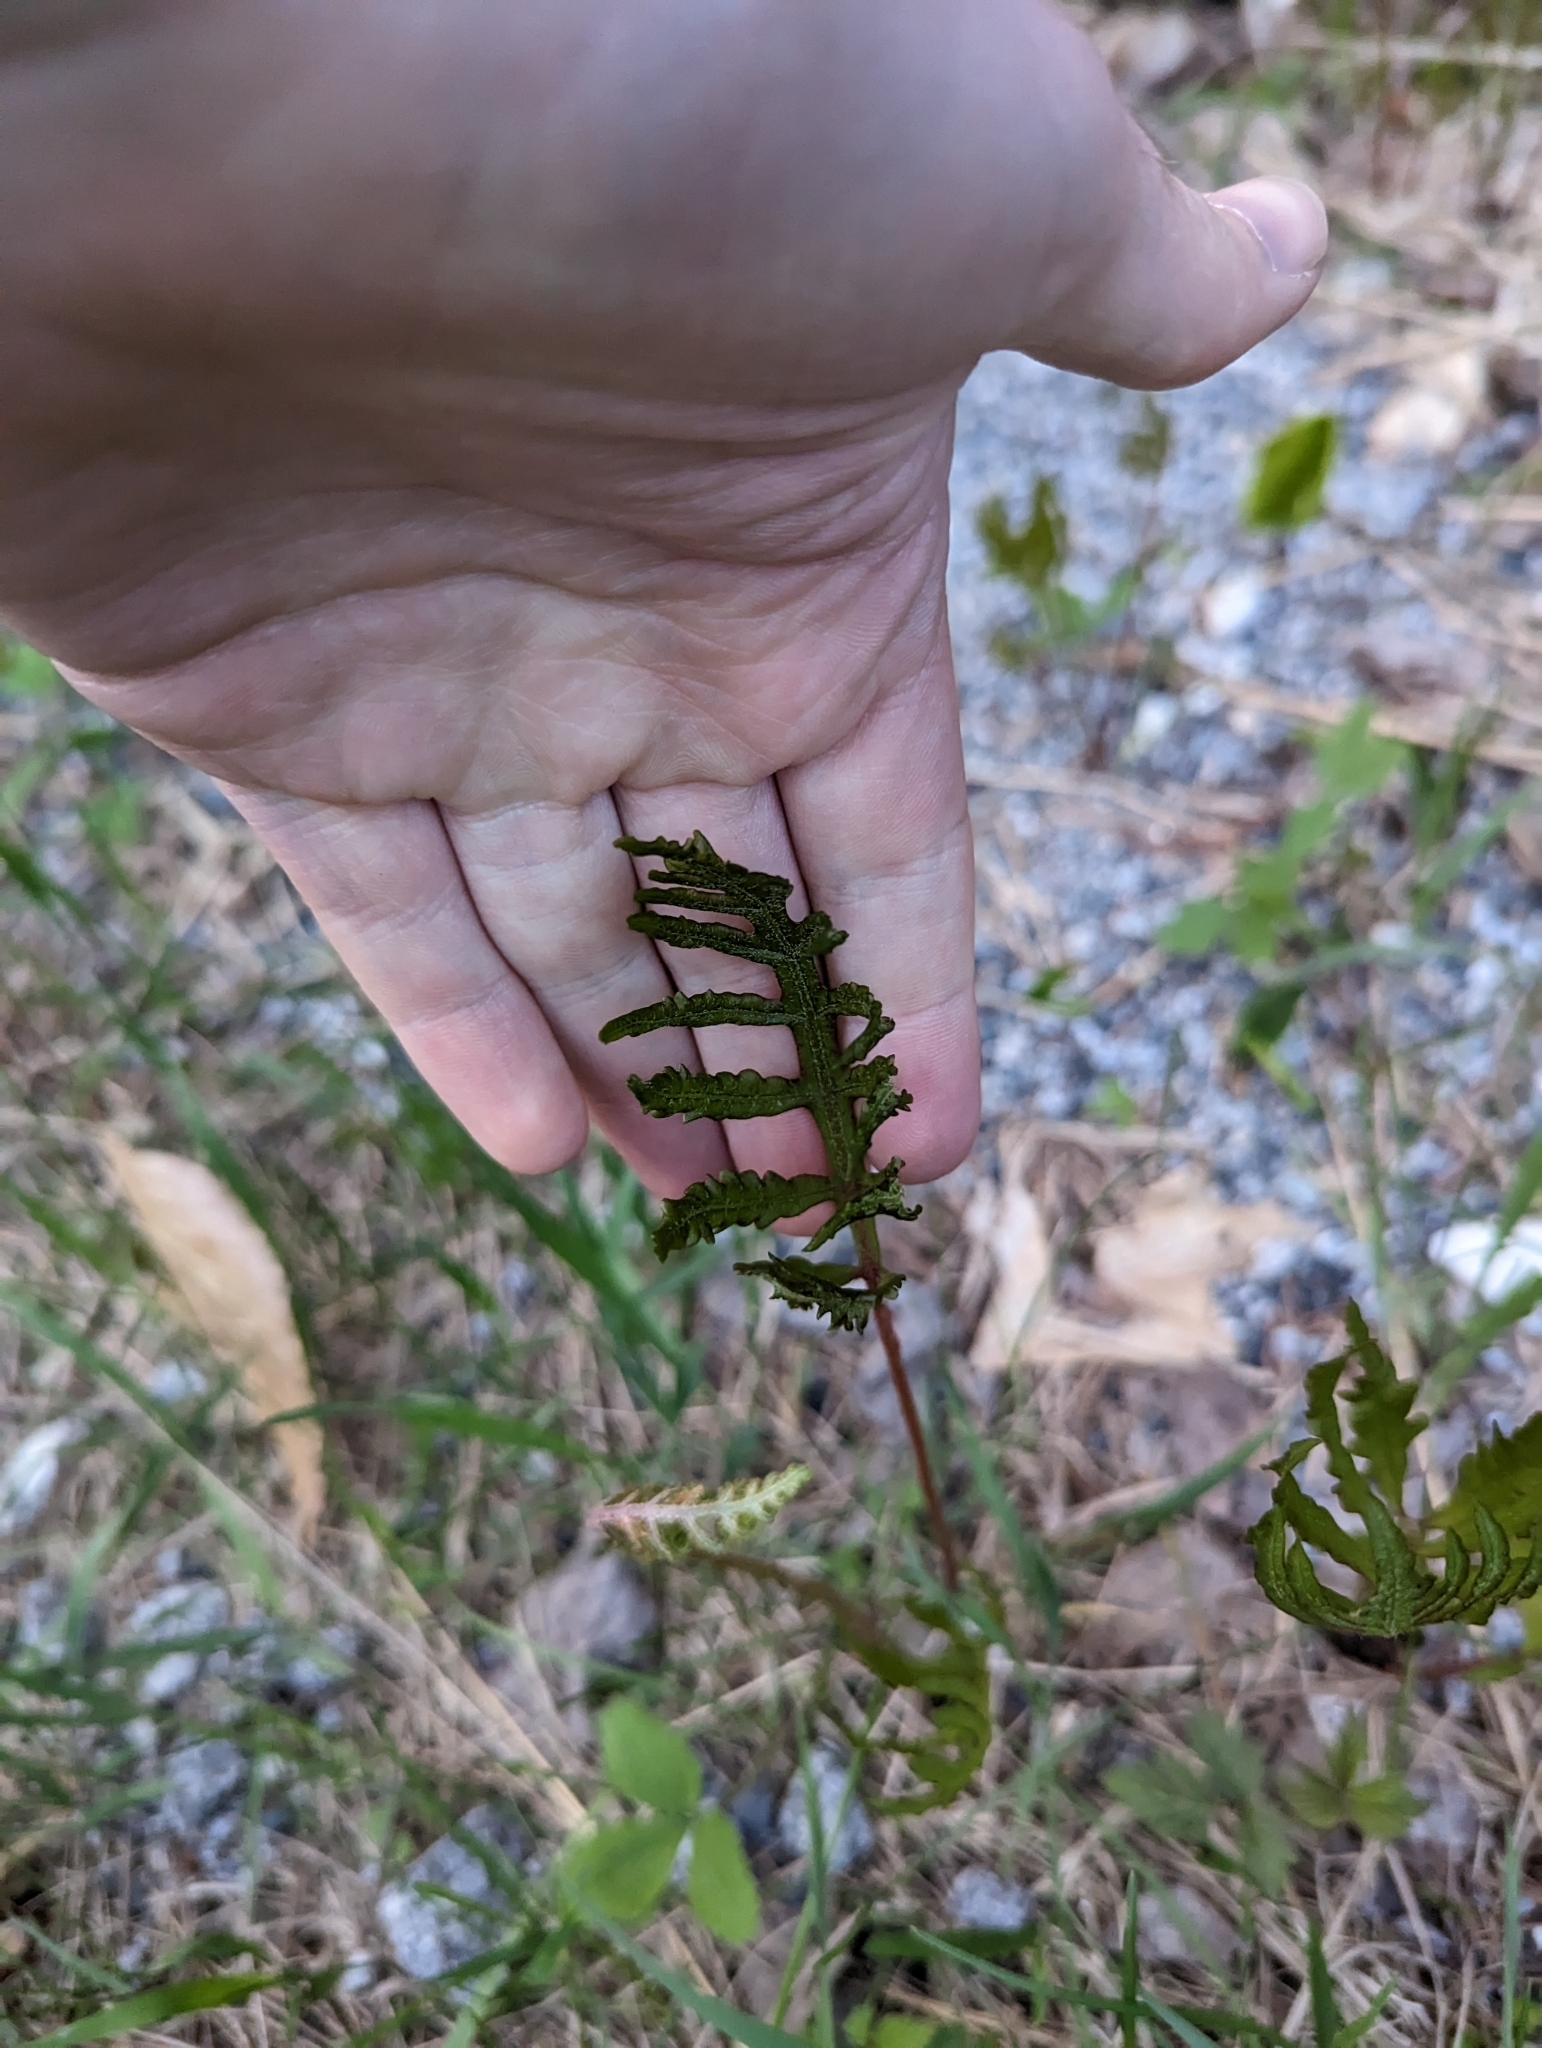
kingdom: Plantae
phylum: Tracheophyta
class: Polypodiopsida
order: Polypodiales
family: Onocleaceae
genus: Onoclea
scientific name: Onoclea sensibilis
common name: Sensitive fern
